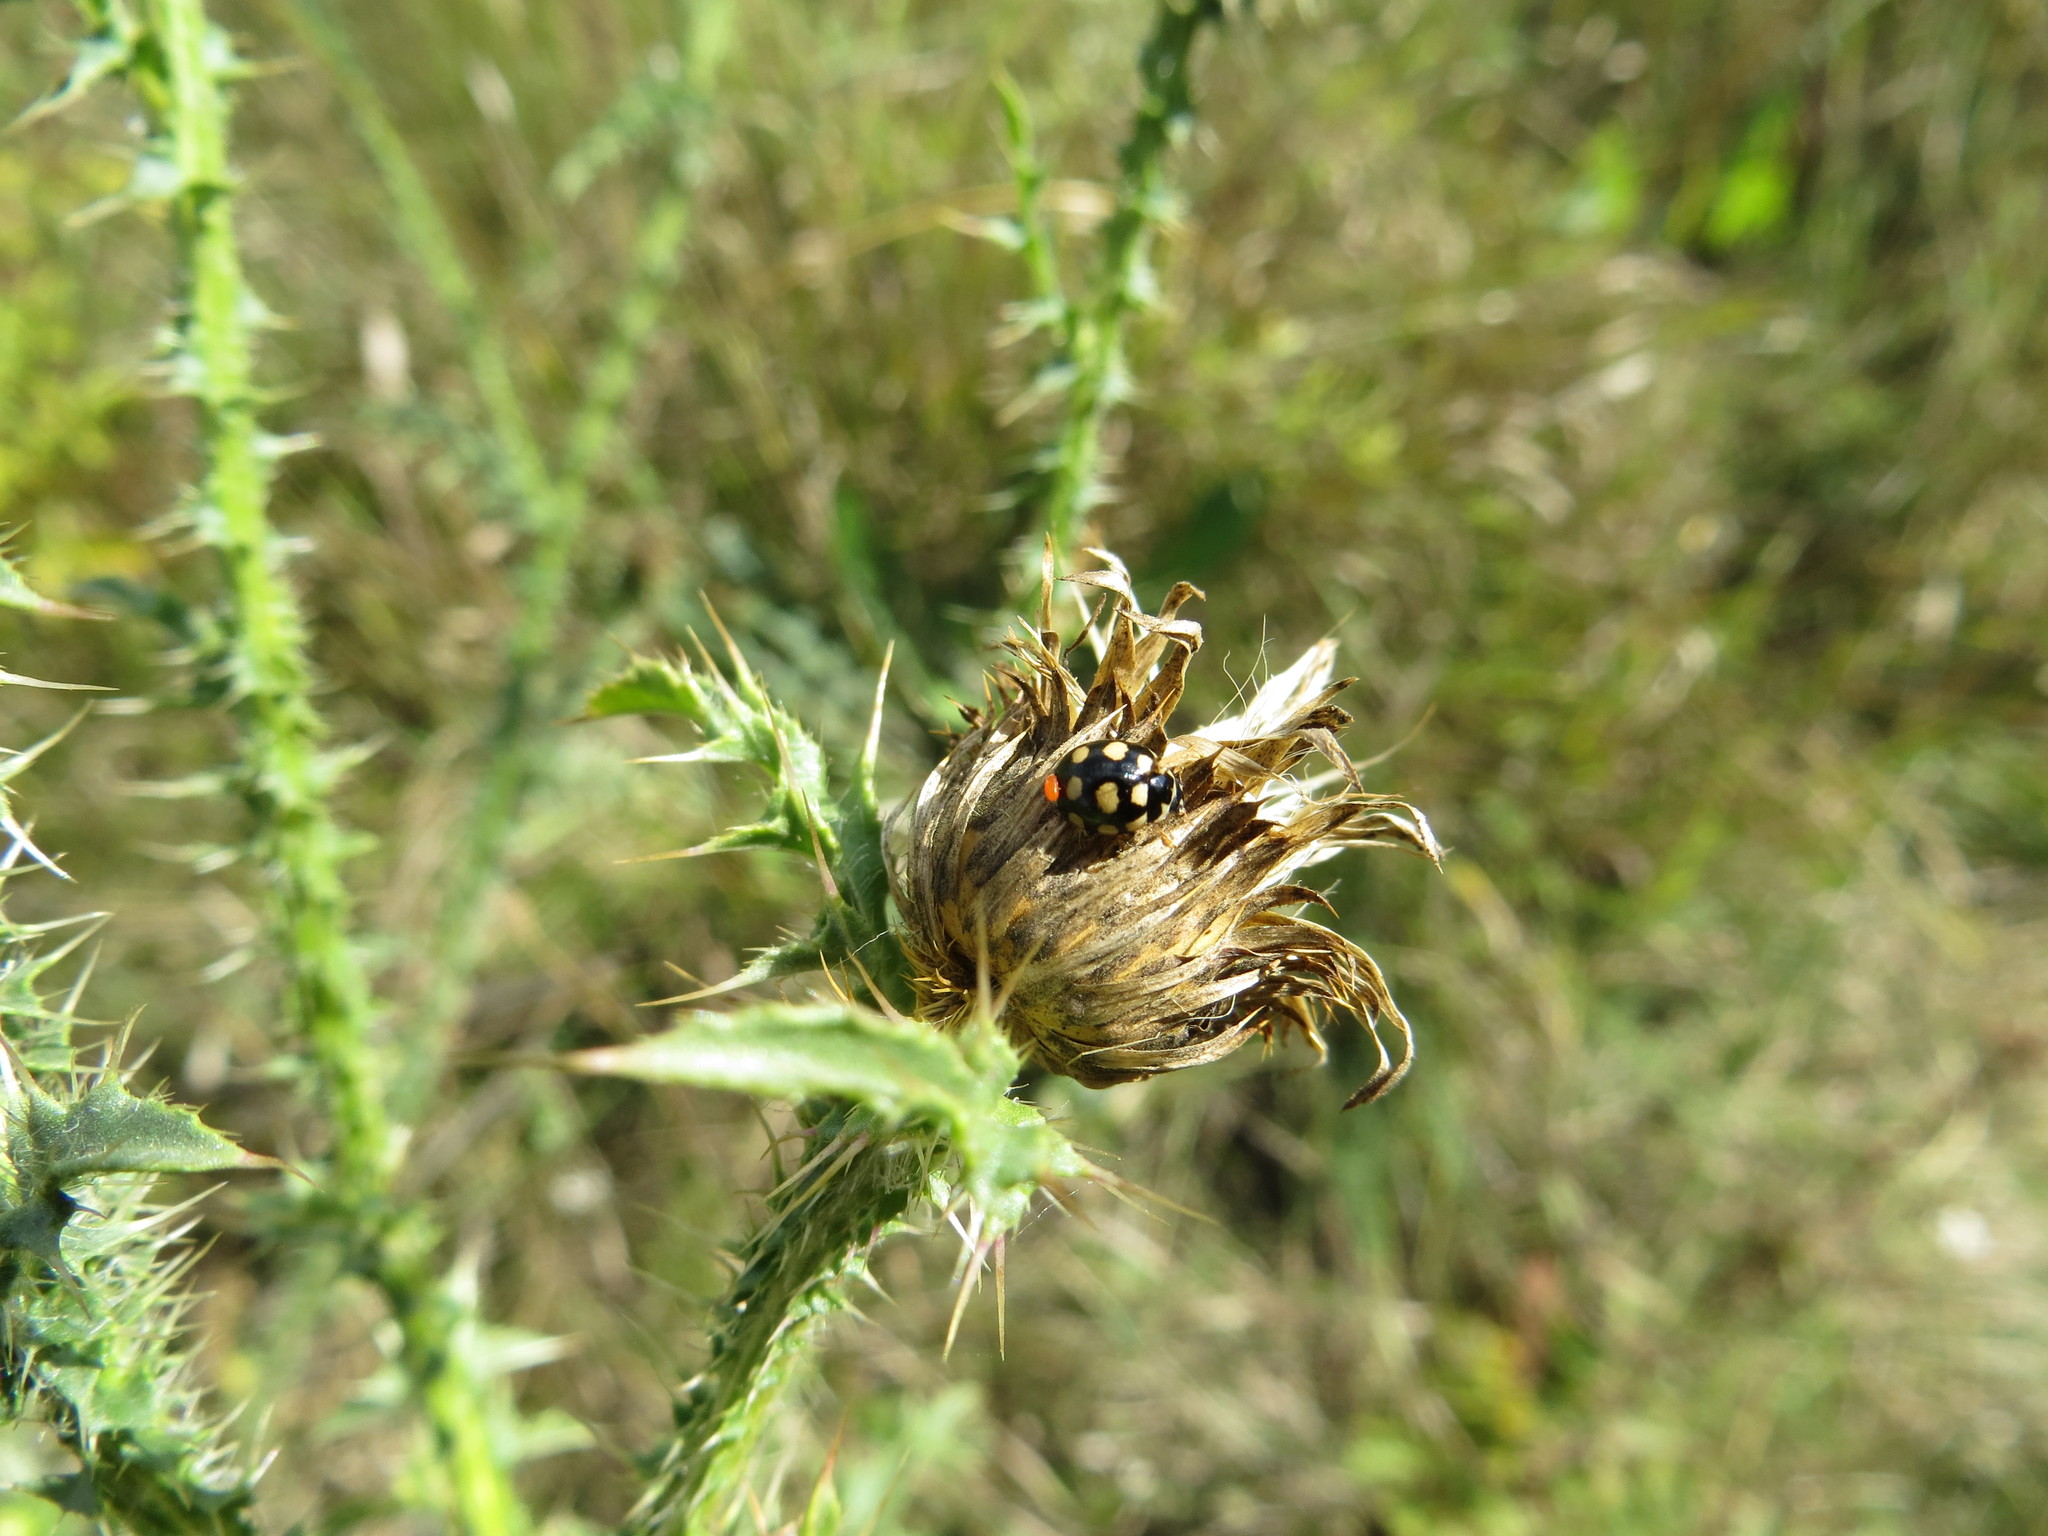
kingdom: Animalia
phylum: Arthropoda
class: Insecta
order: Coleoptera
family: Coccinellidae
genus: Coccinula
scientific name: Coccinula quatuordecimpustulata
